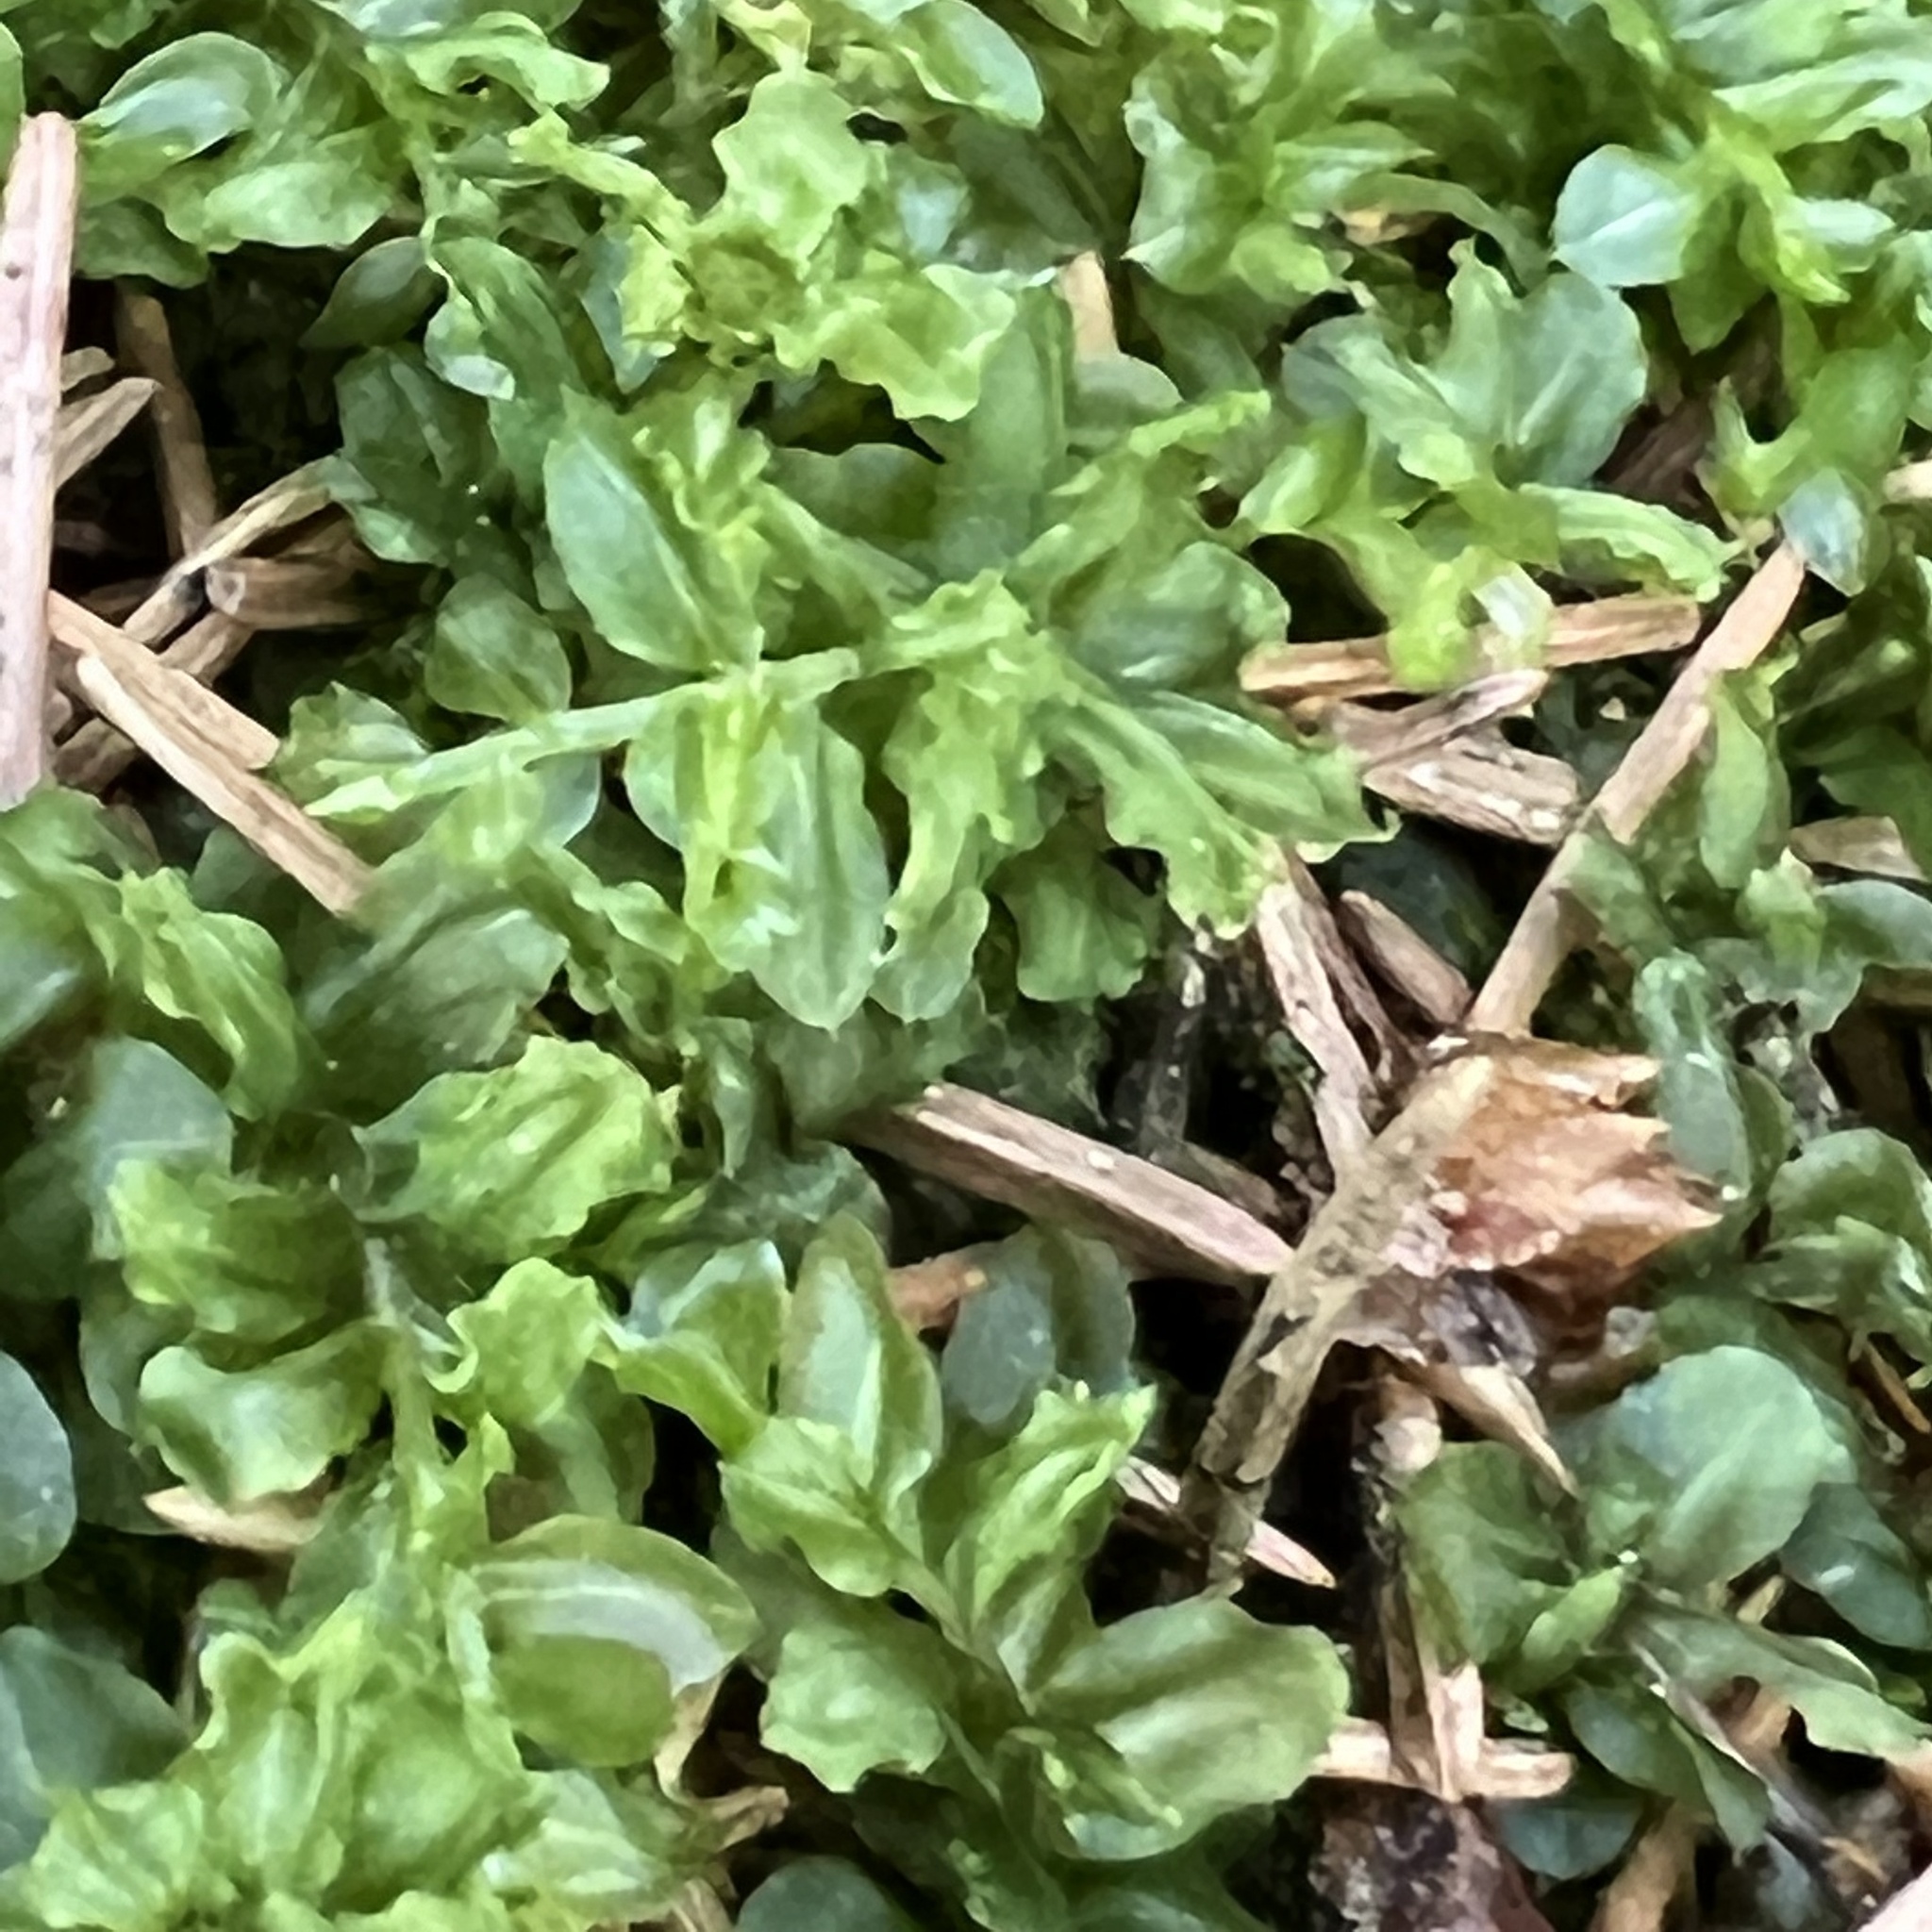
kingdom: Plantae
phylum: Bryophyta
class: Bryopsida
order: Bryales
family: Mniaceae
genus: Plagiomnium
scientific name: Plagiomnium affine
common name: Many-fruited thyme-moss
